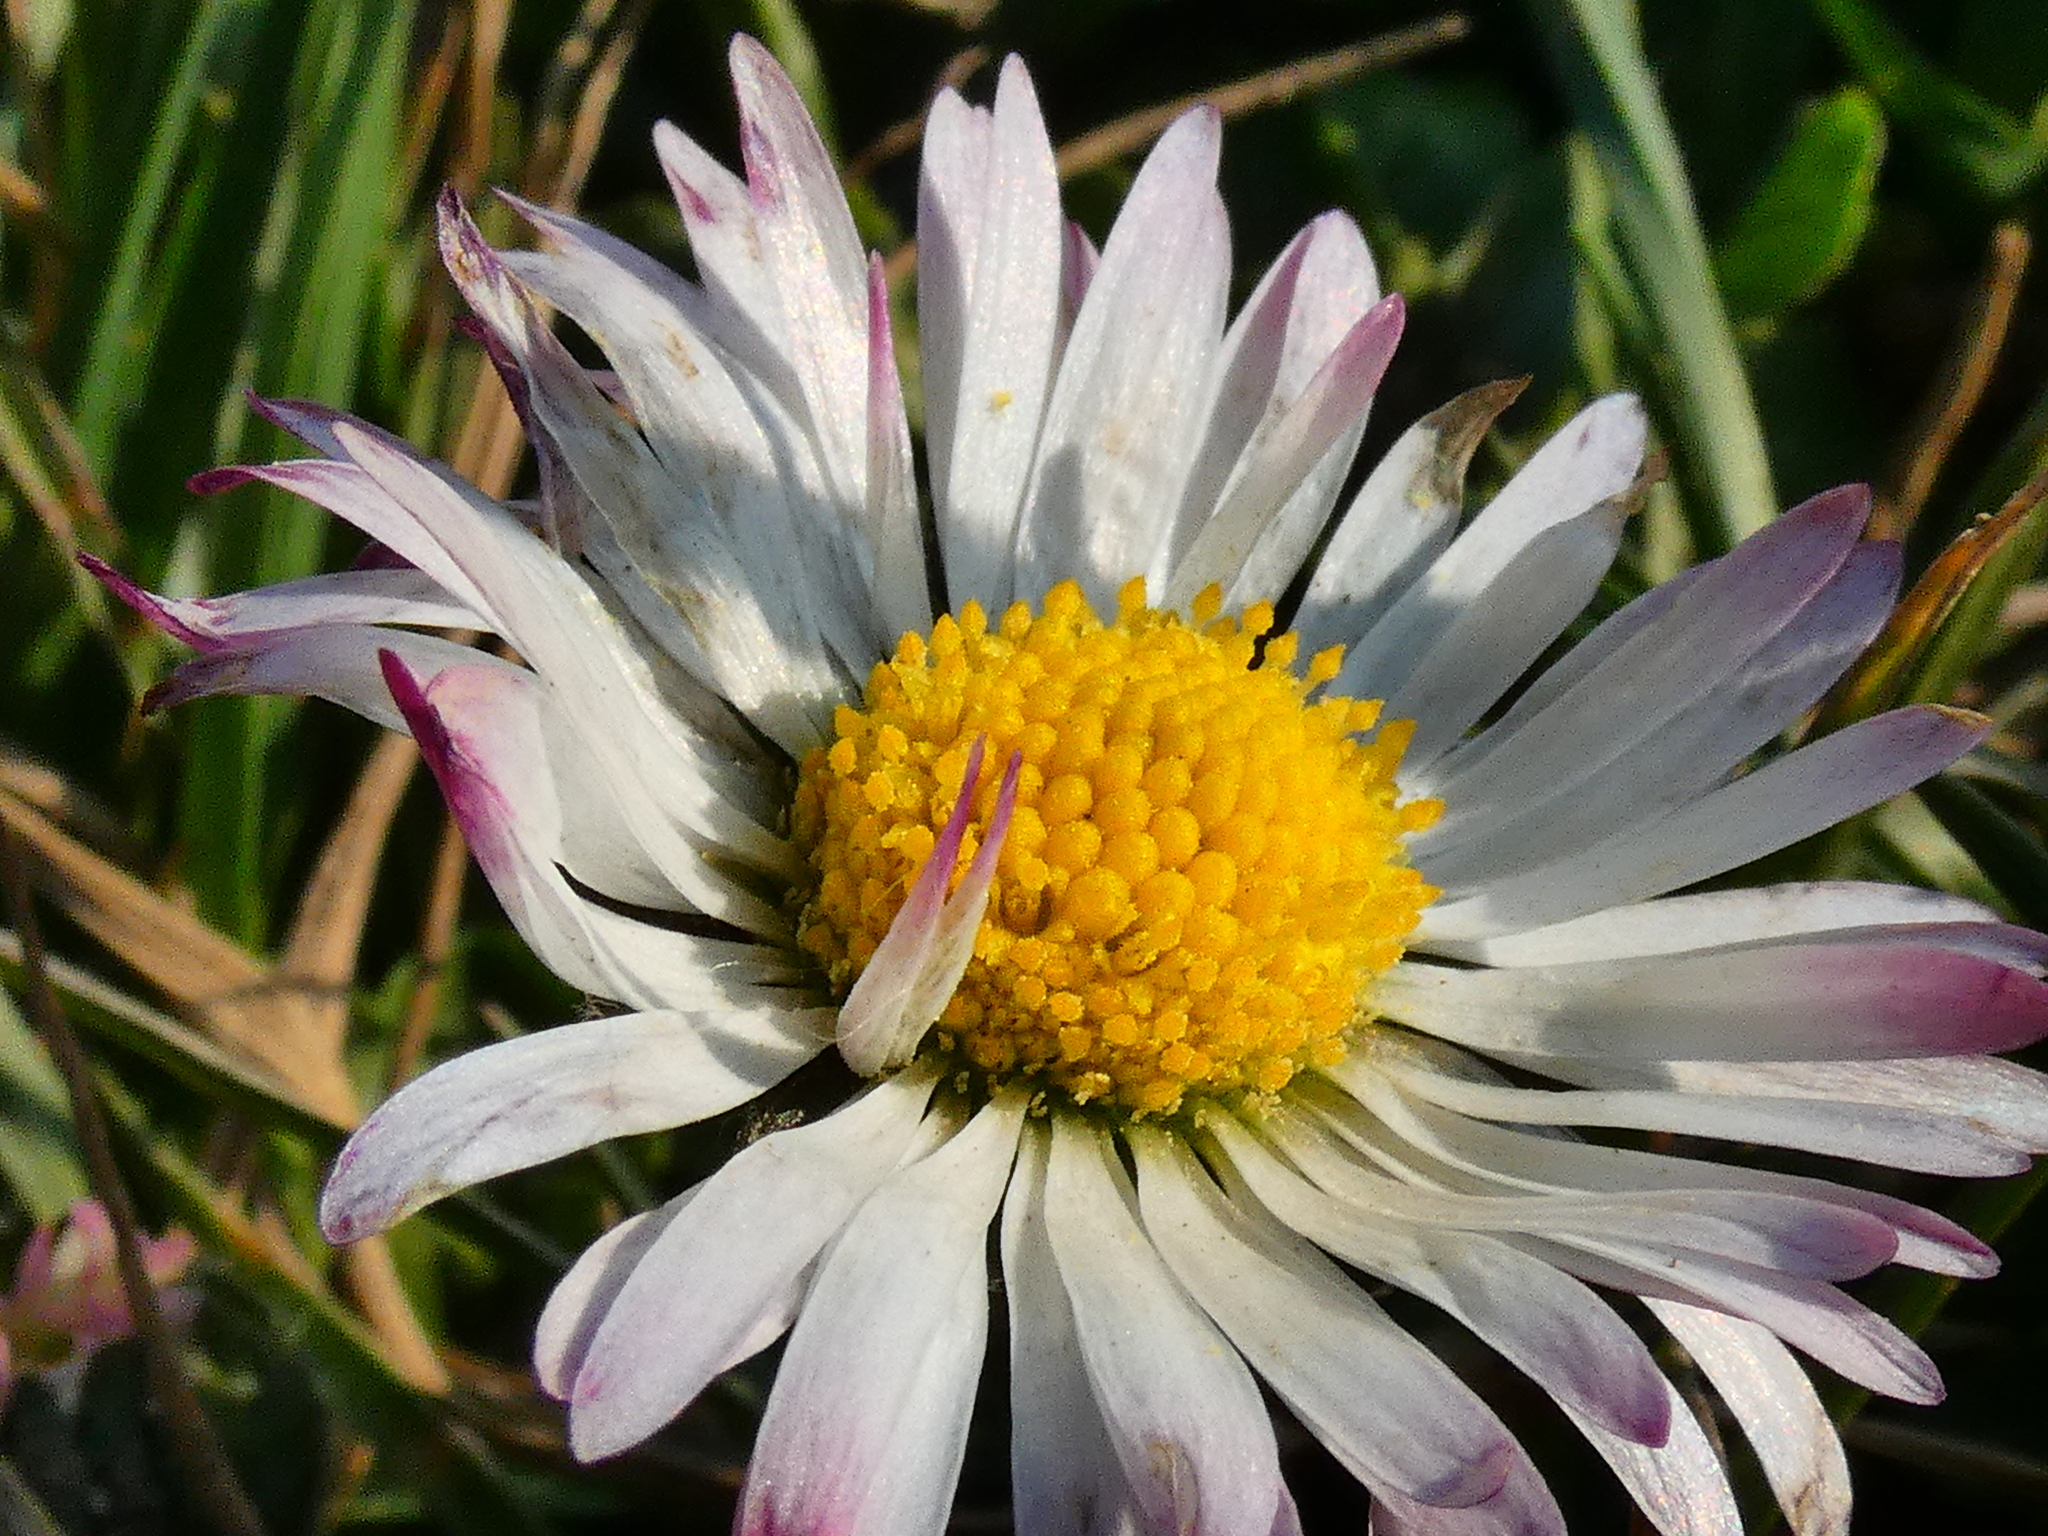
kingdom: Plantae
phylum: Tracheophyta
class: Magnoliopsida
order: Asterales
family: Asteraceae
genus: Bellis
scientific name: Bellis perennis
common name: Lawndaisy
